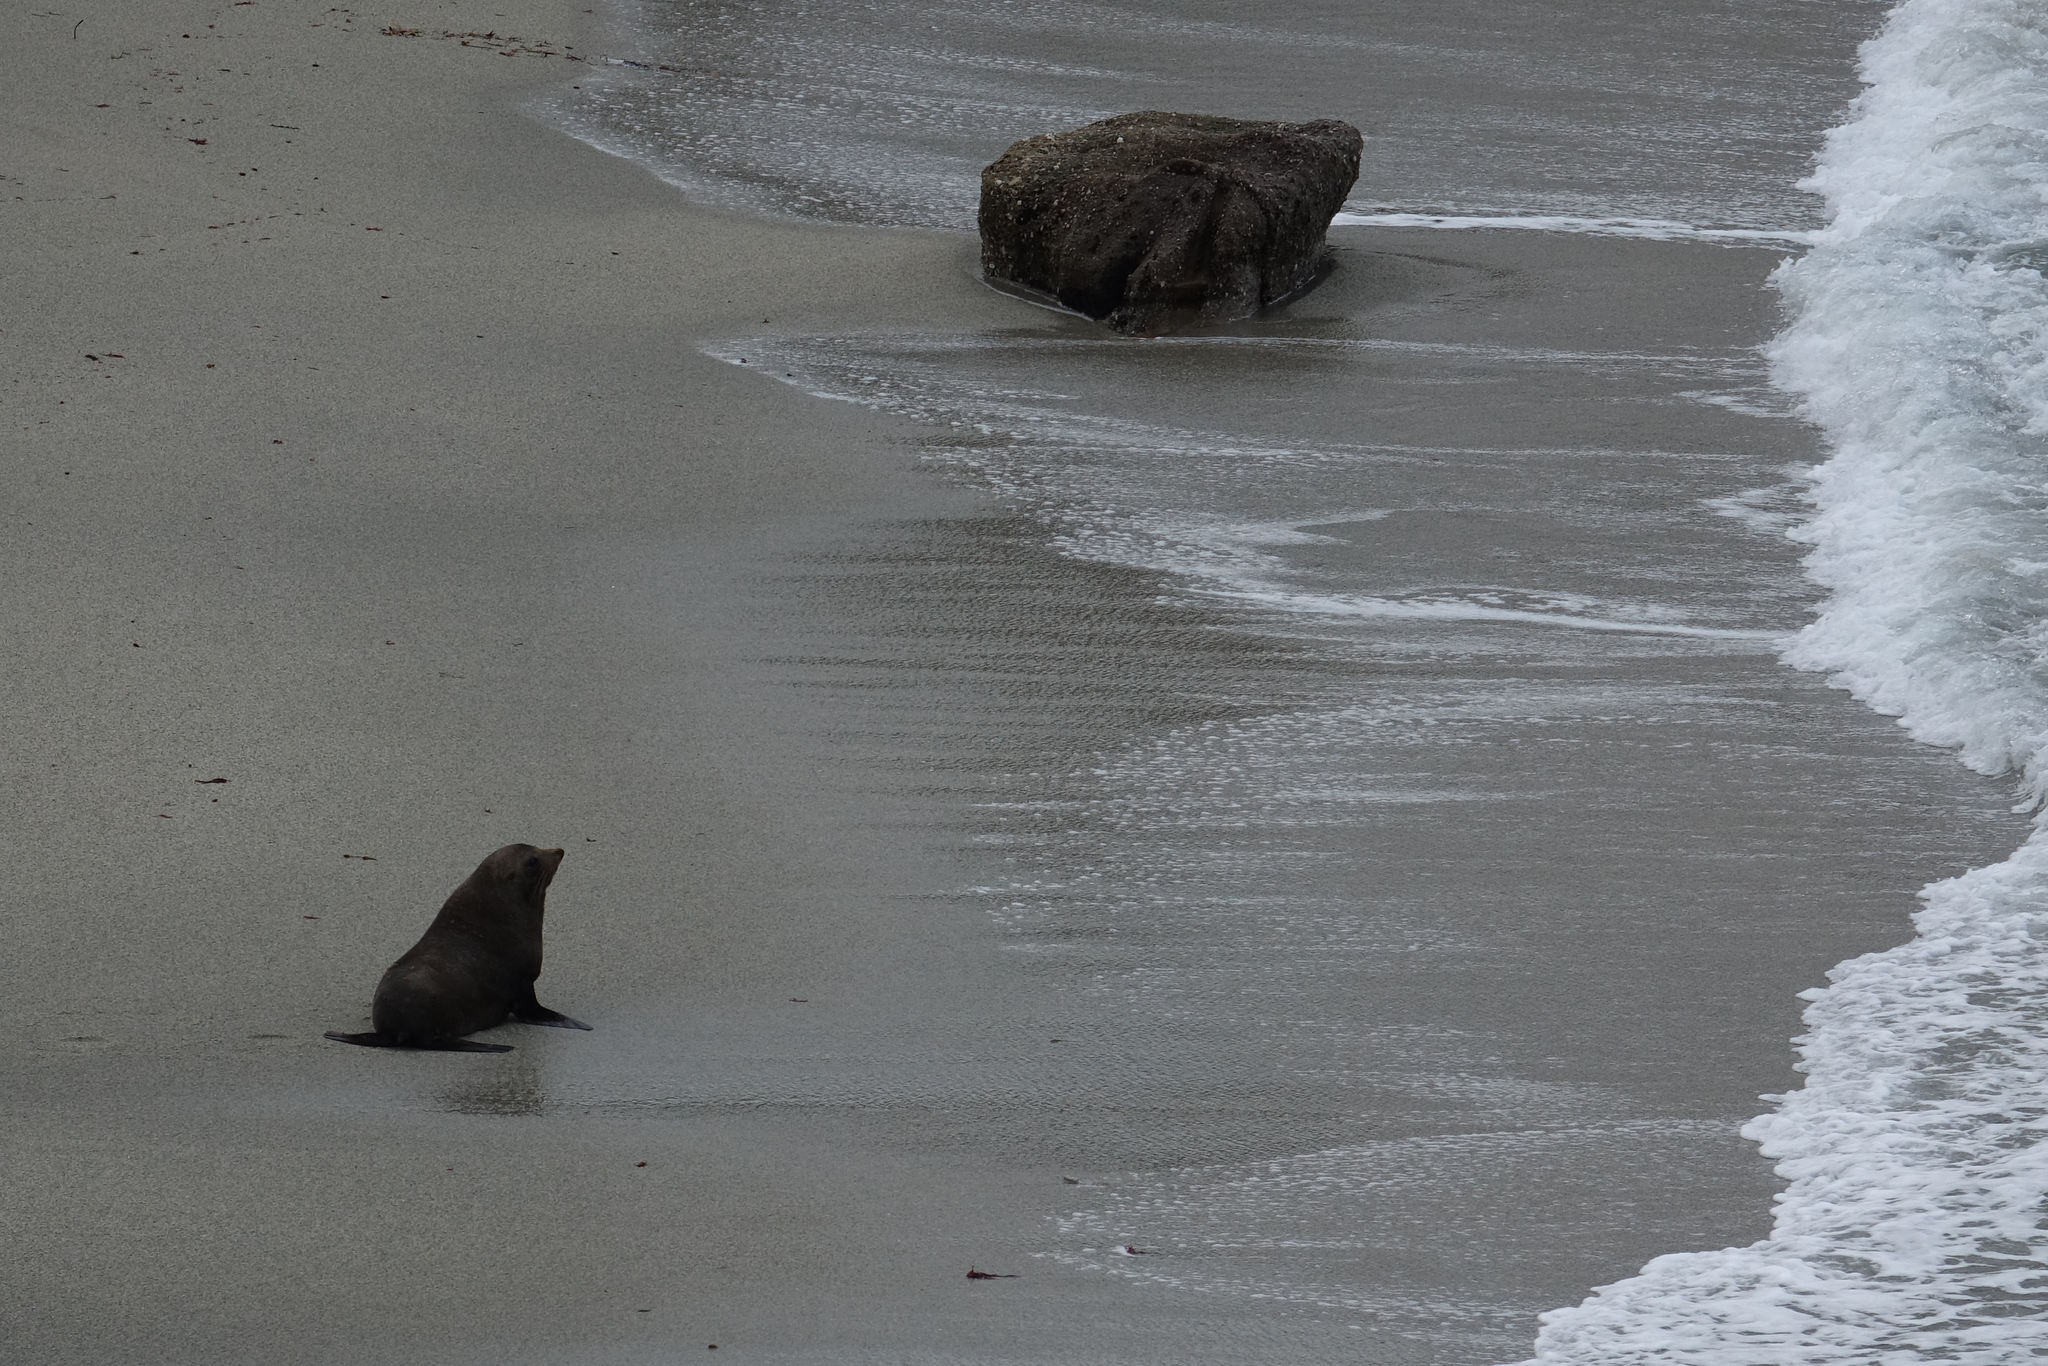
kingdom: Animalia
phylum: Chordata
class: Mammalia
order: Carnivora
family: Otariidae
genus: Arctocephalus
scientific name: Arctocephalus forsteri
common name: New zealand fur seal
